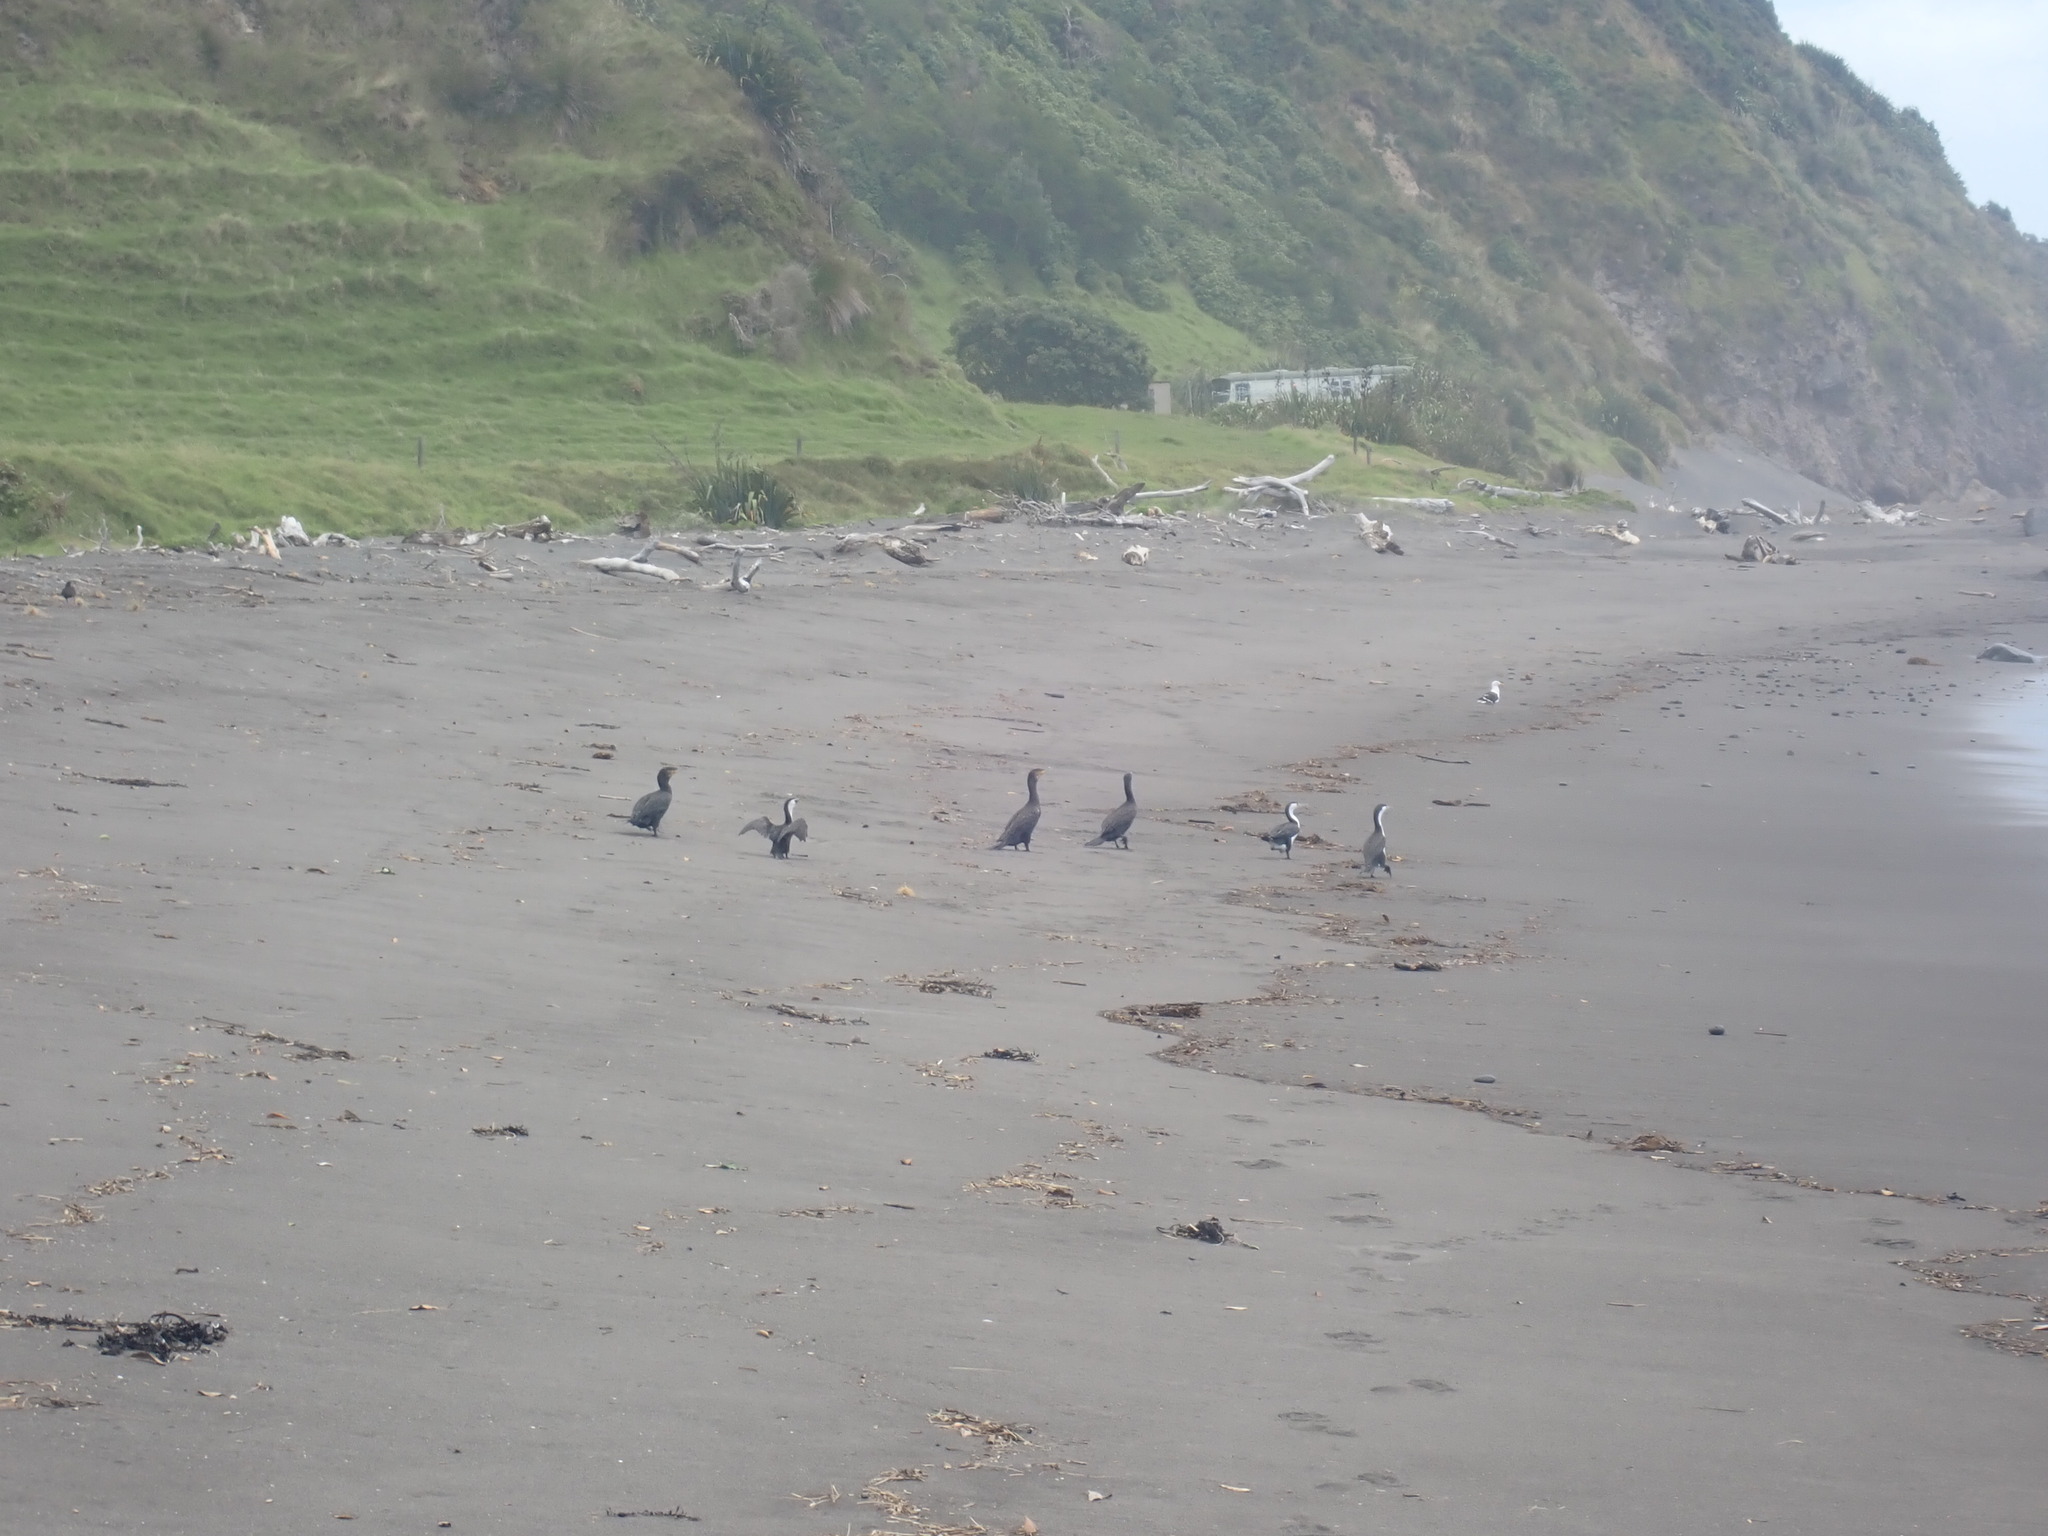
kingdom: Animalia
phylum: Chordata
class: Aves
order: Suliformes
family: Phalacrocoracidae
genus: Phalacrocorax
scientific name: Phalacrocorax carbo
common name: Great cormorant
